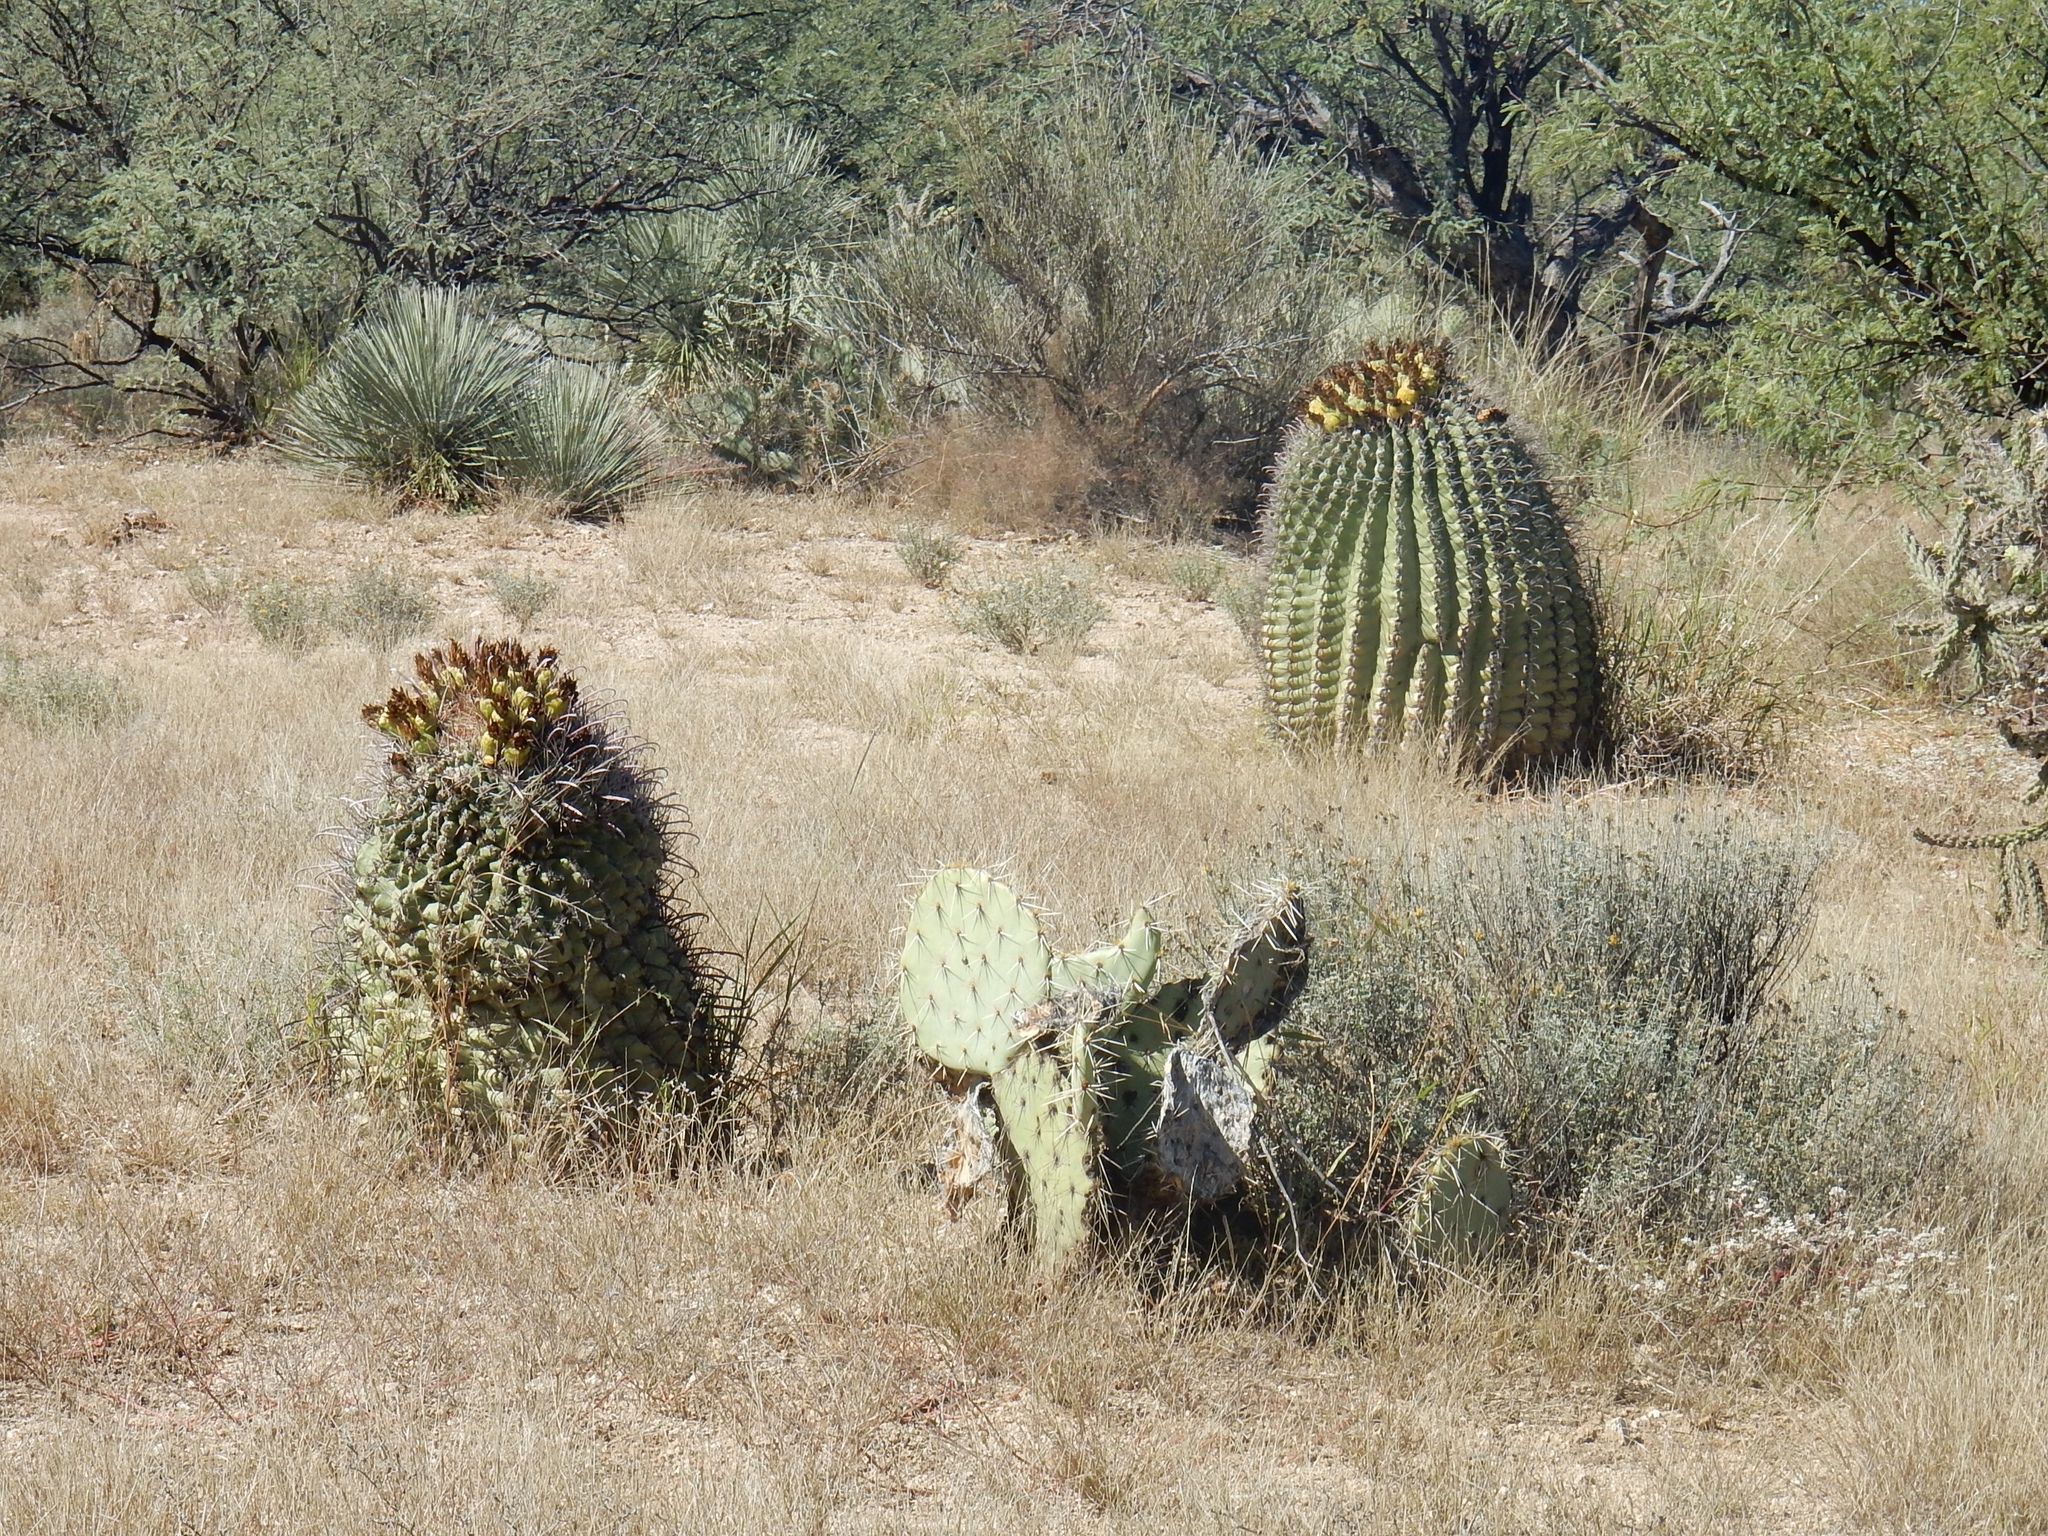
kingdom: Plantae
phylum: Tracheophyta
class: Magnoliopsida
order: Caryophyllales
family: Cactaceae
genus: Ferocactus
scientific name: Ferocactus wislizeni
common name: Candy barrel cactus
